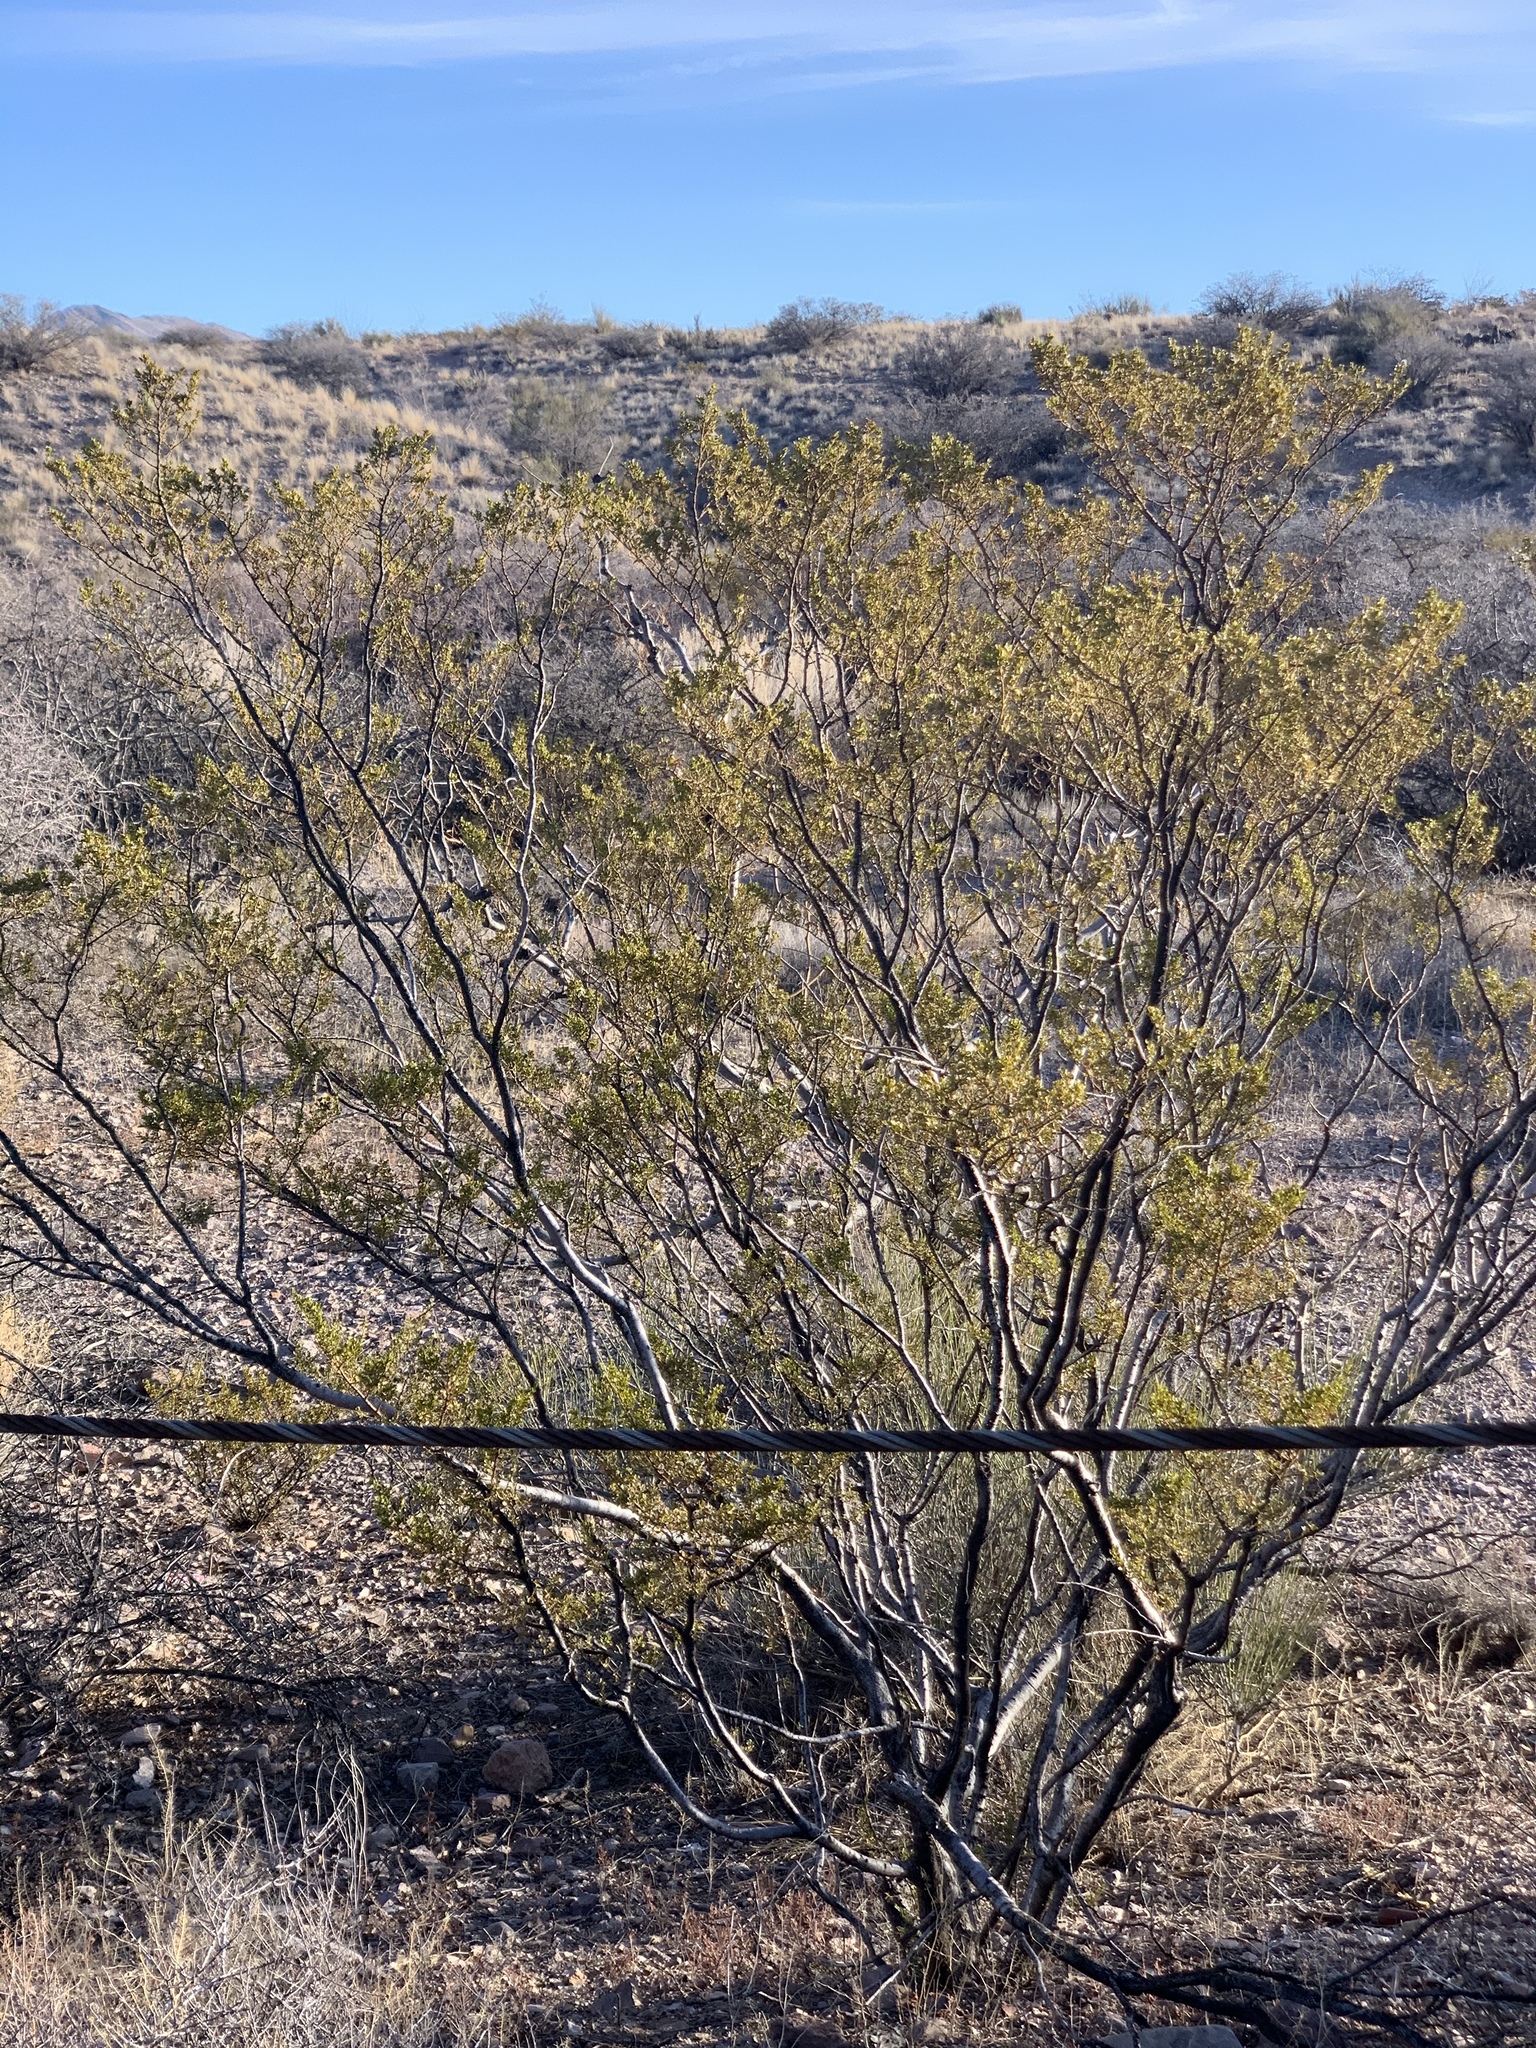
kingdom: Plantae
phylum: Tracheophyta
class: Magnoliopsida
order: Zygophyllales
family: Zygophyllaceae
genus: Larrea
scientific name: Larrea tridentata
